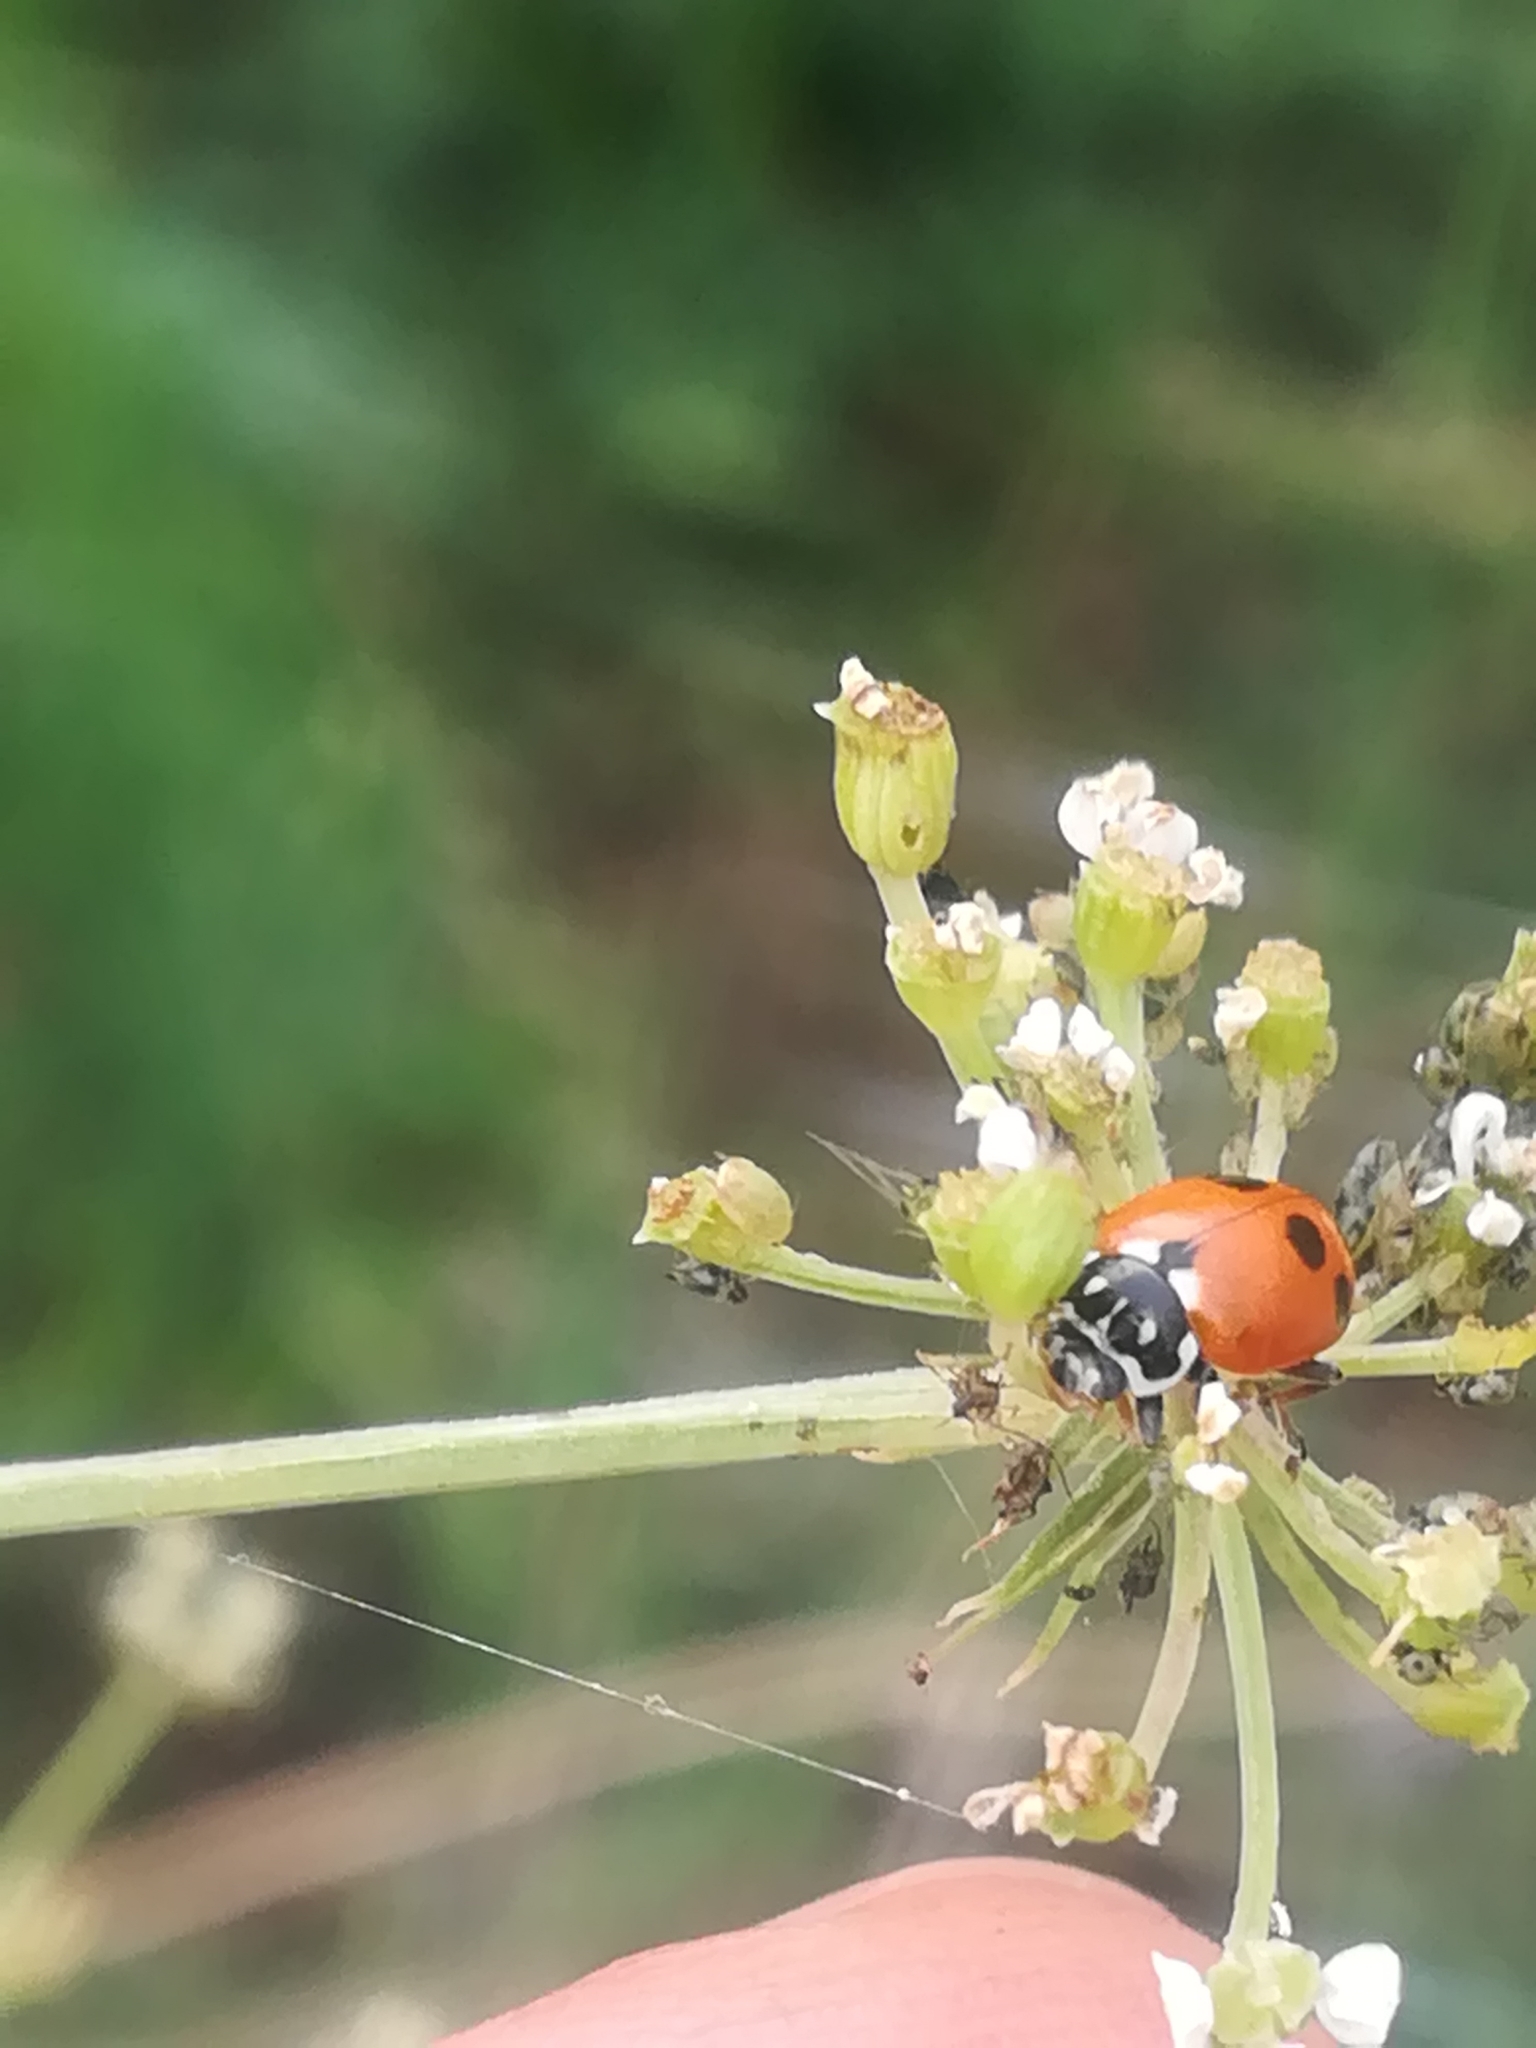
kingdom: Animalia
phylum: Arthropoda
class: Insecta
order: Coleoptera
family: Coccinellidae
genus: Hippodamia
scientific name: Hippodamia variegata
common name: Ladybird beetle
